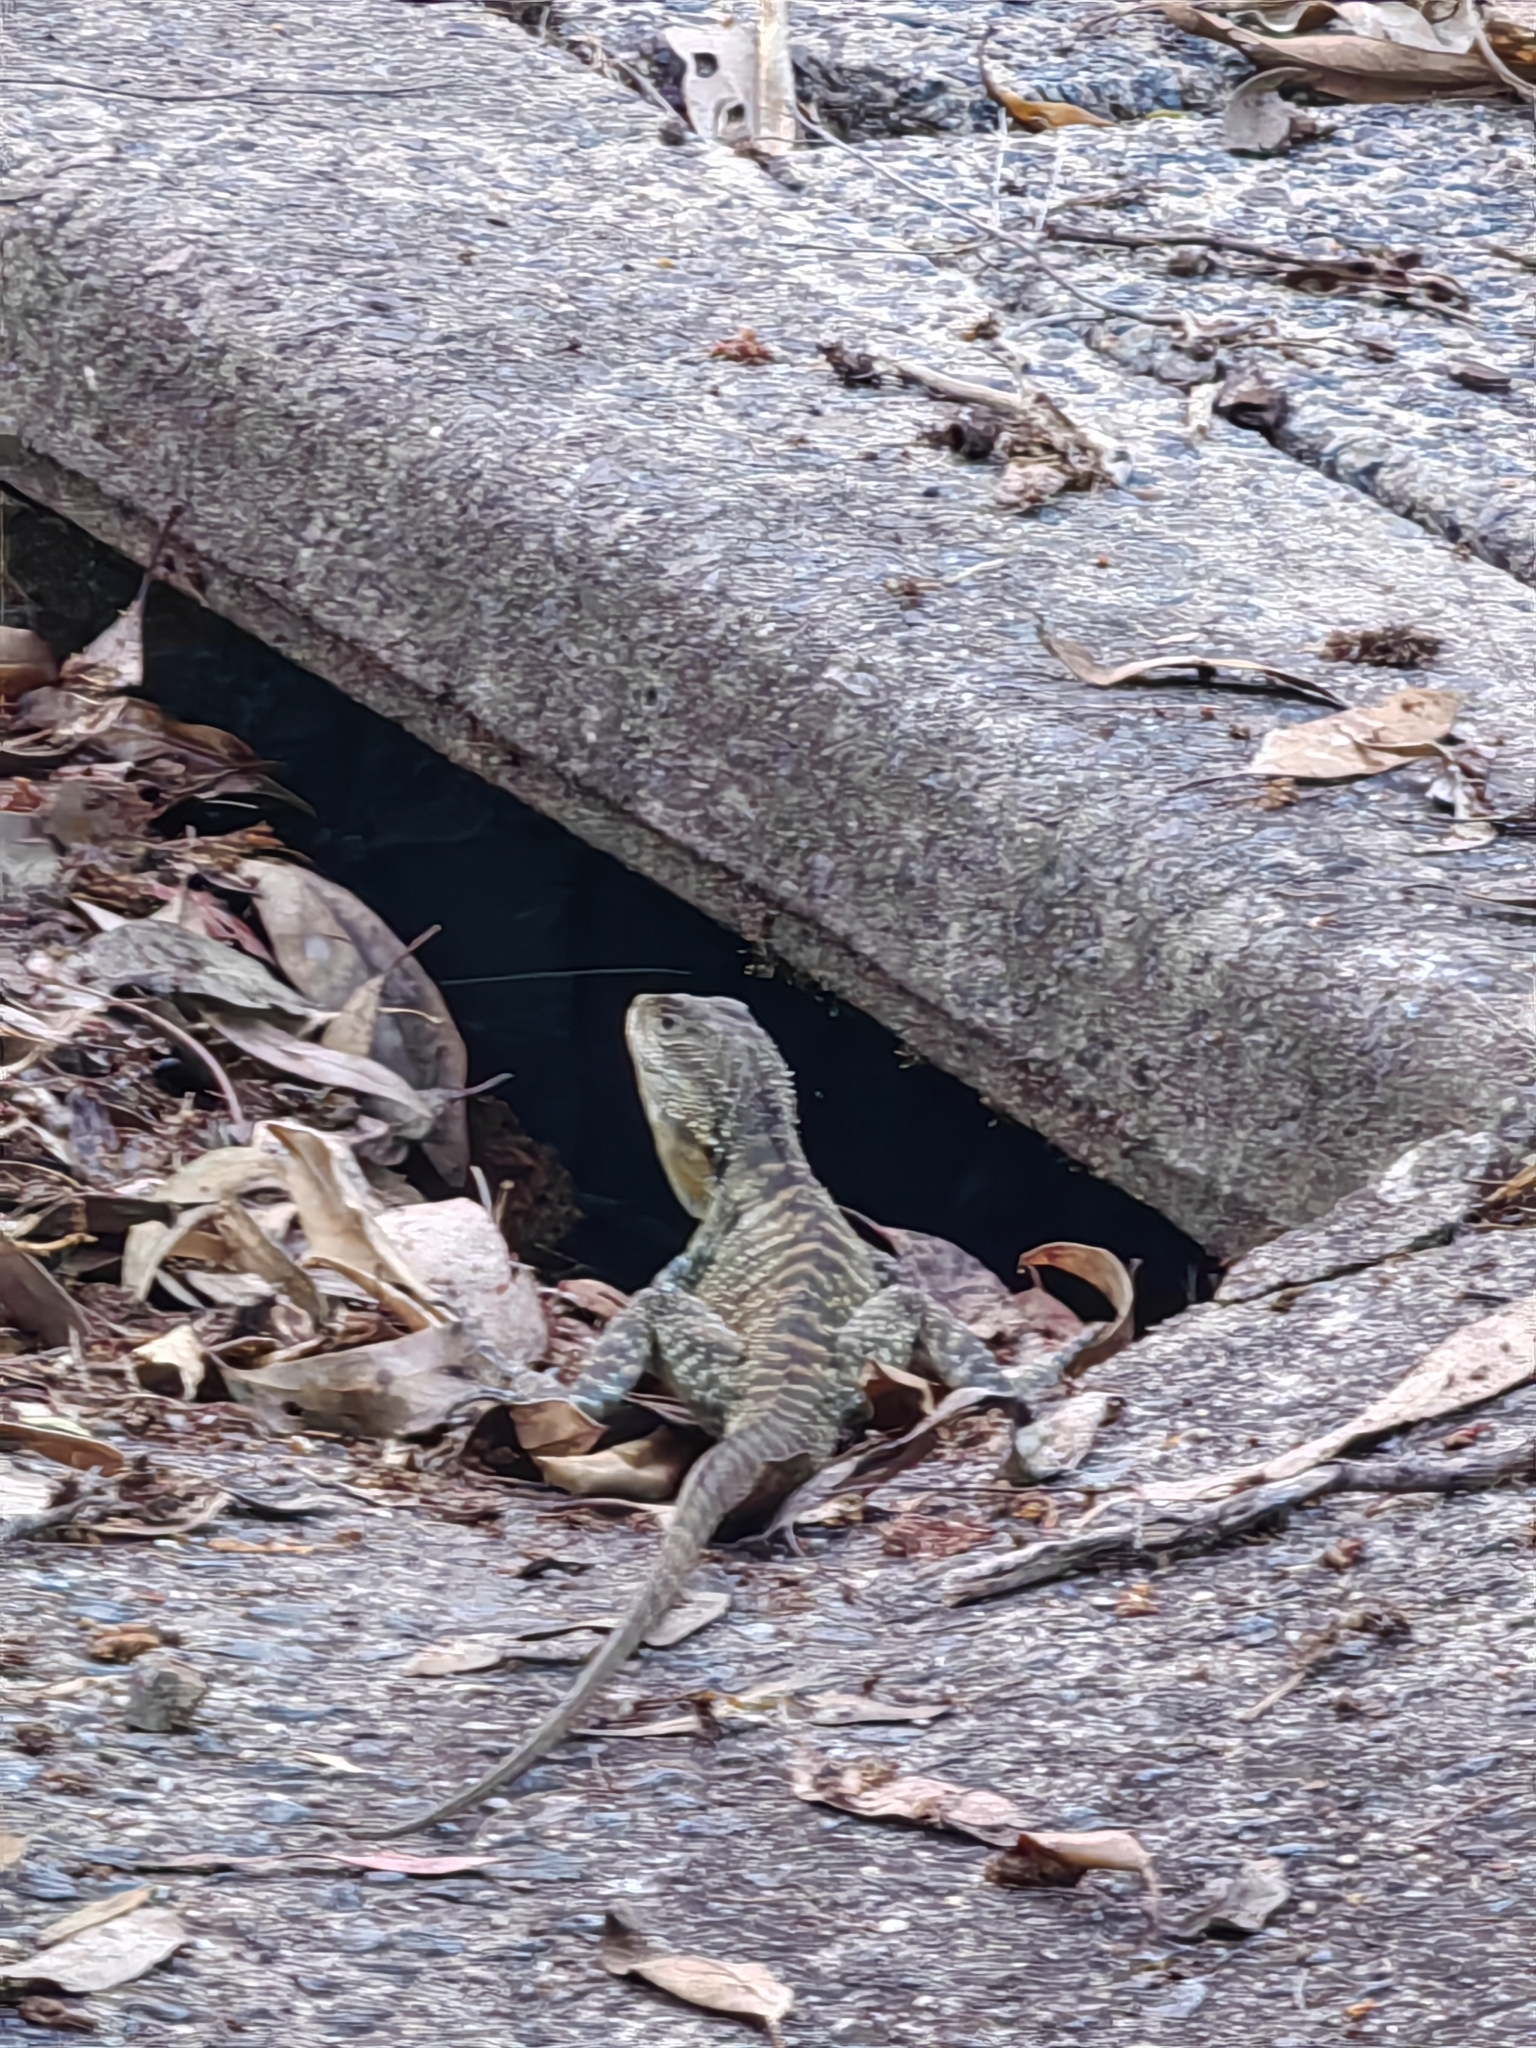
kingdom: Animalia
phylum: Chordata
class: Squamata
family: Agamidae
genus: Intellagama
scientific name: Intellagama lesueurii
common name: Eastern water dragon
